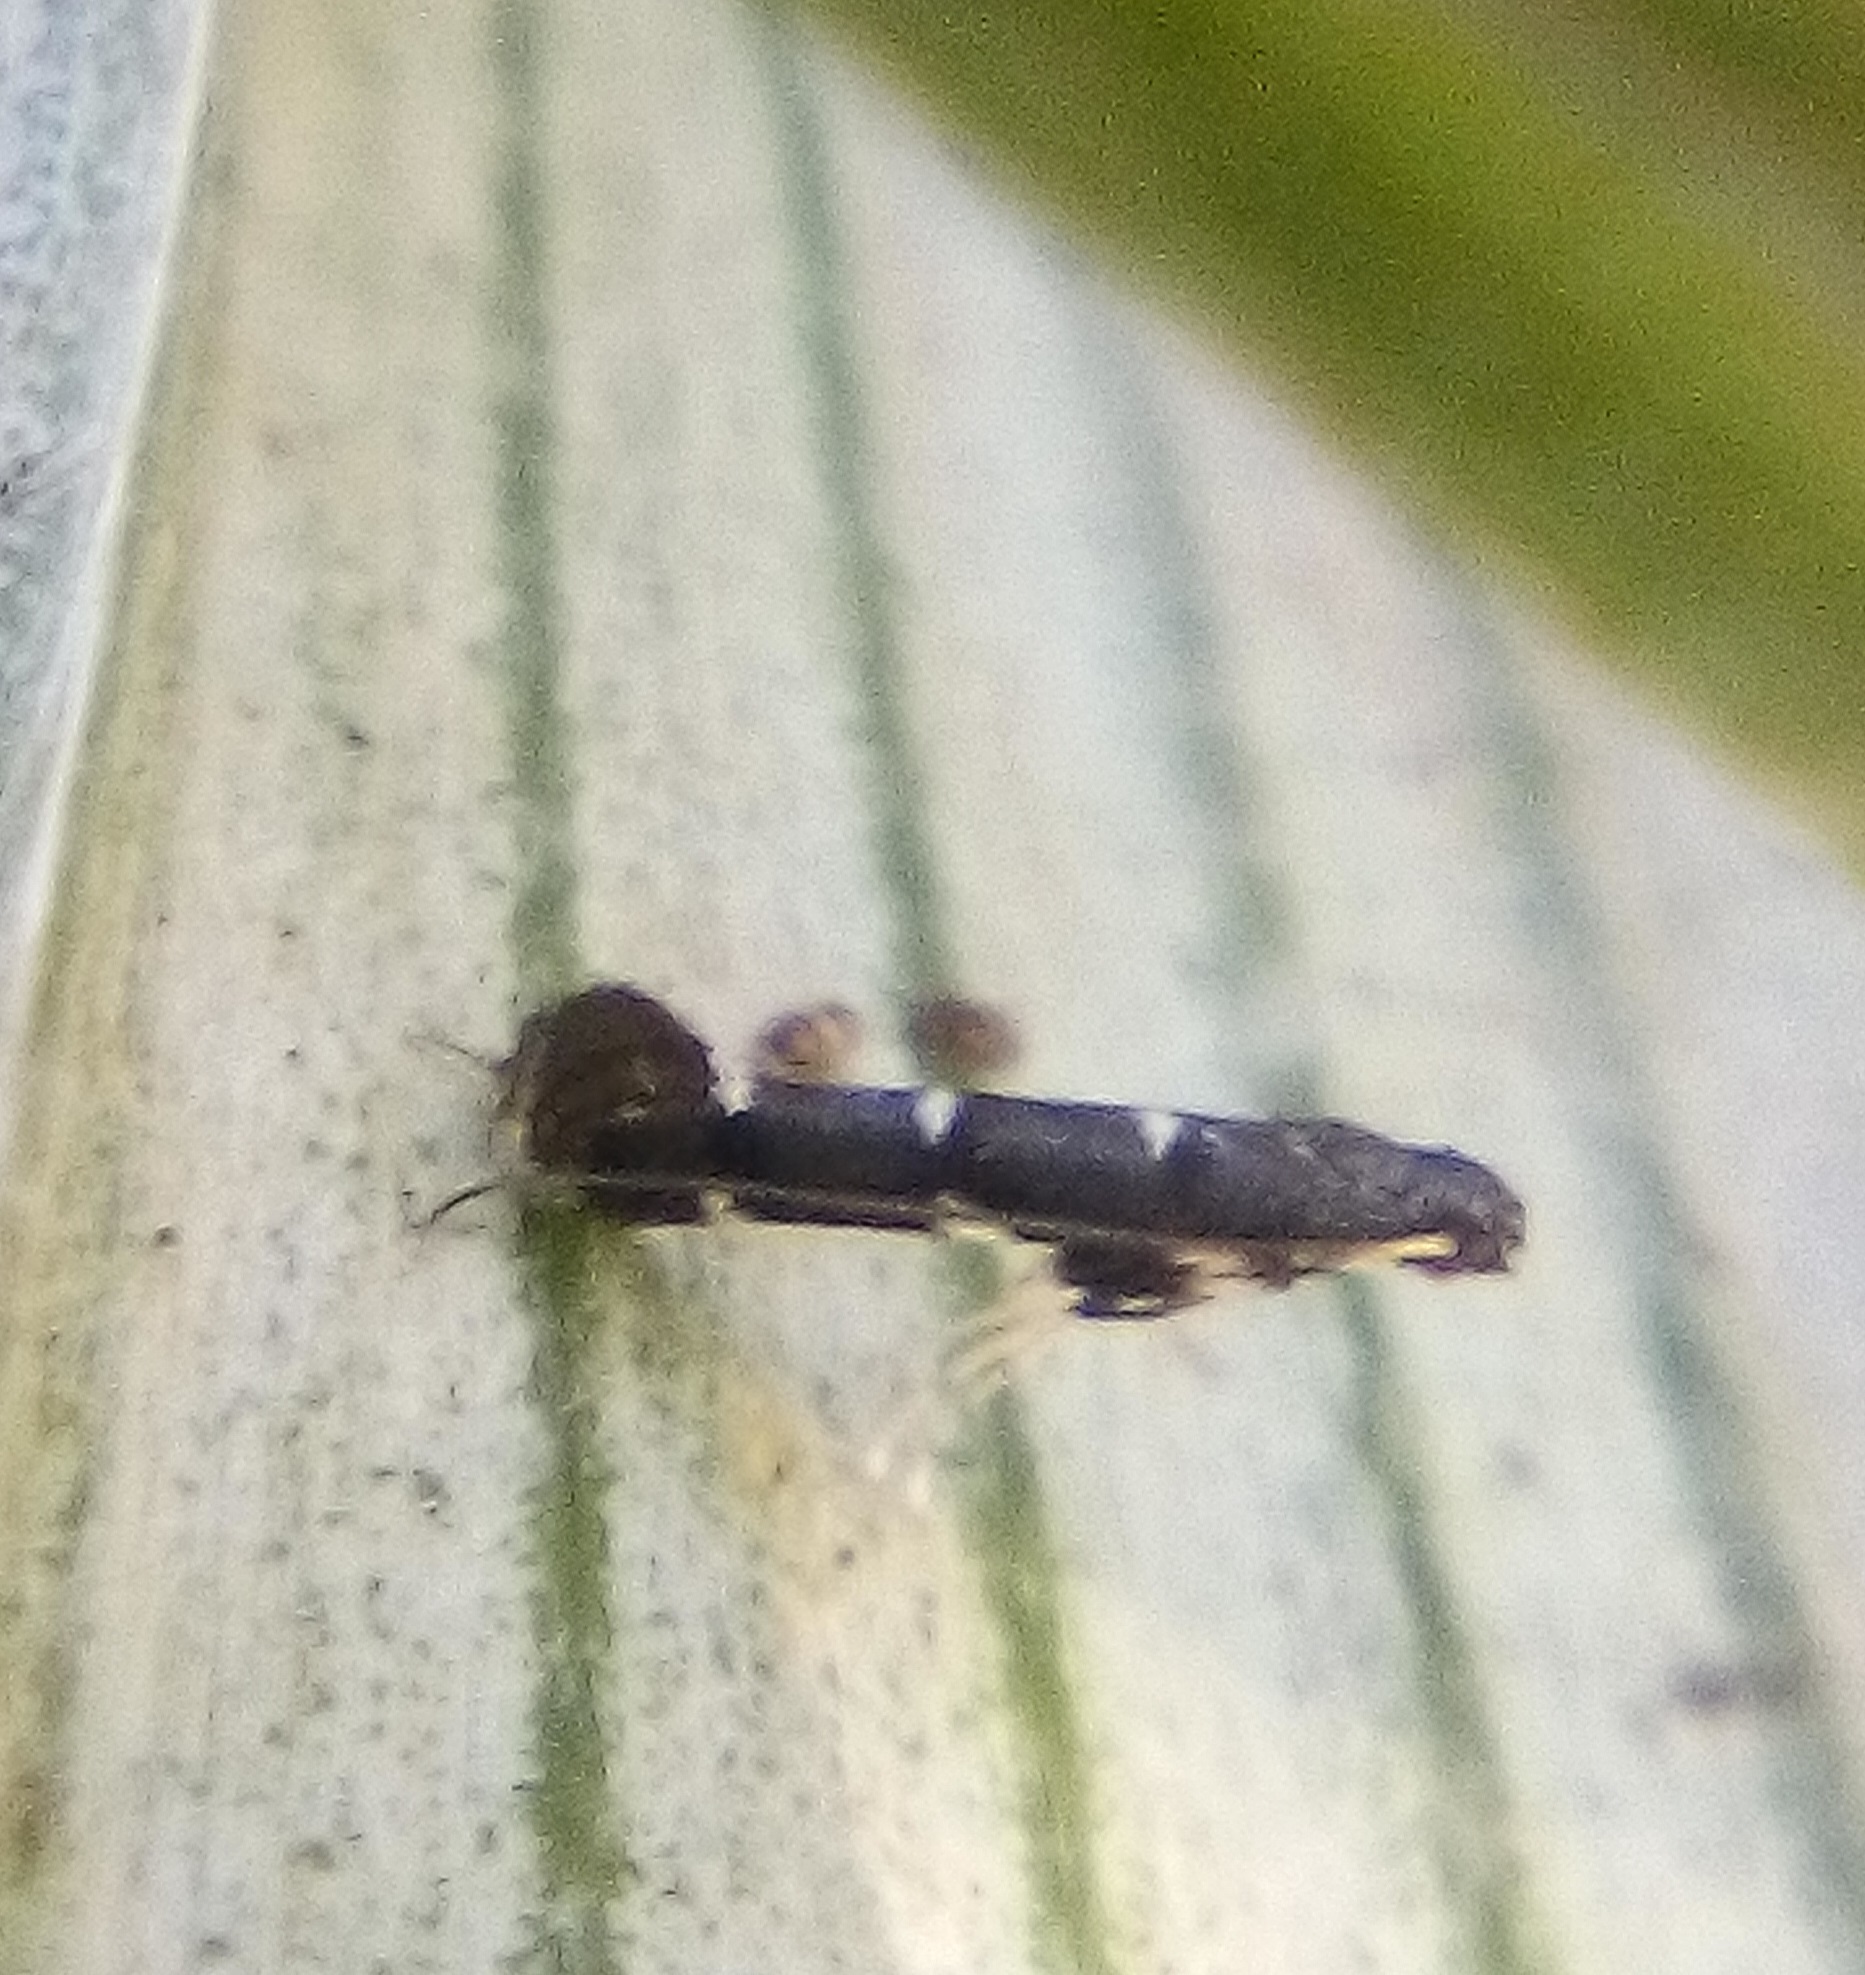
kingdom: Animalia
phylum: Arthropoda
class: Insecta
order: Lepidoptera
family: Gracillariidae
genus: Corythoxestis
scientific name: Corythoxestis zorionella
